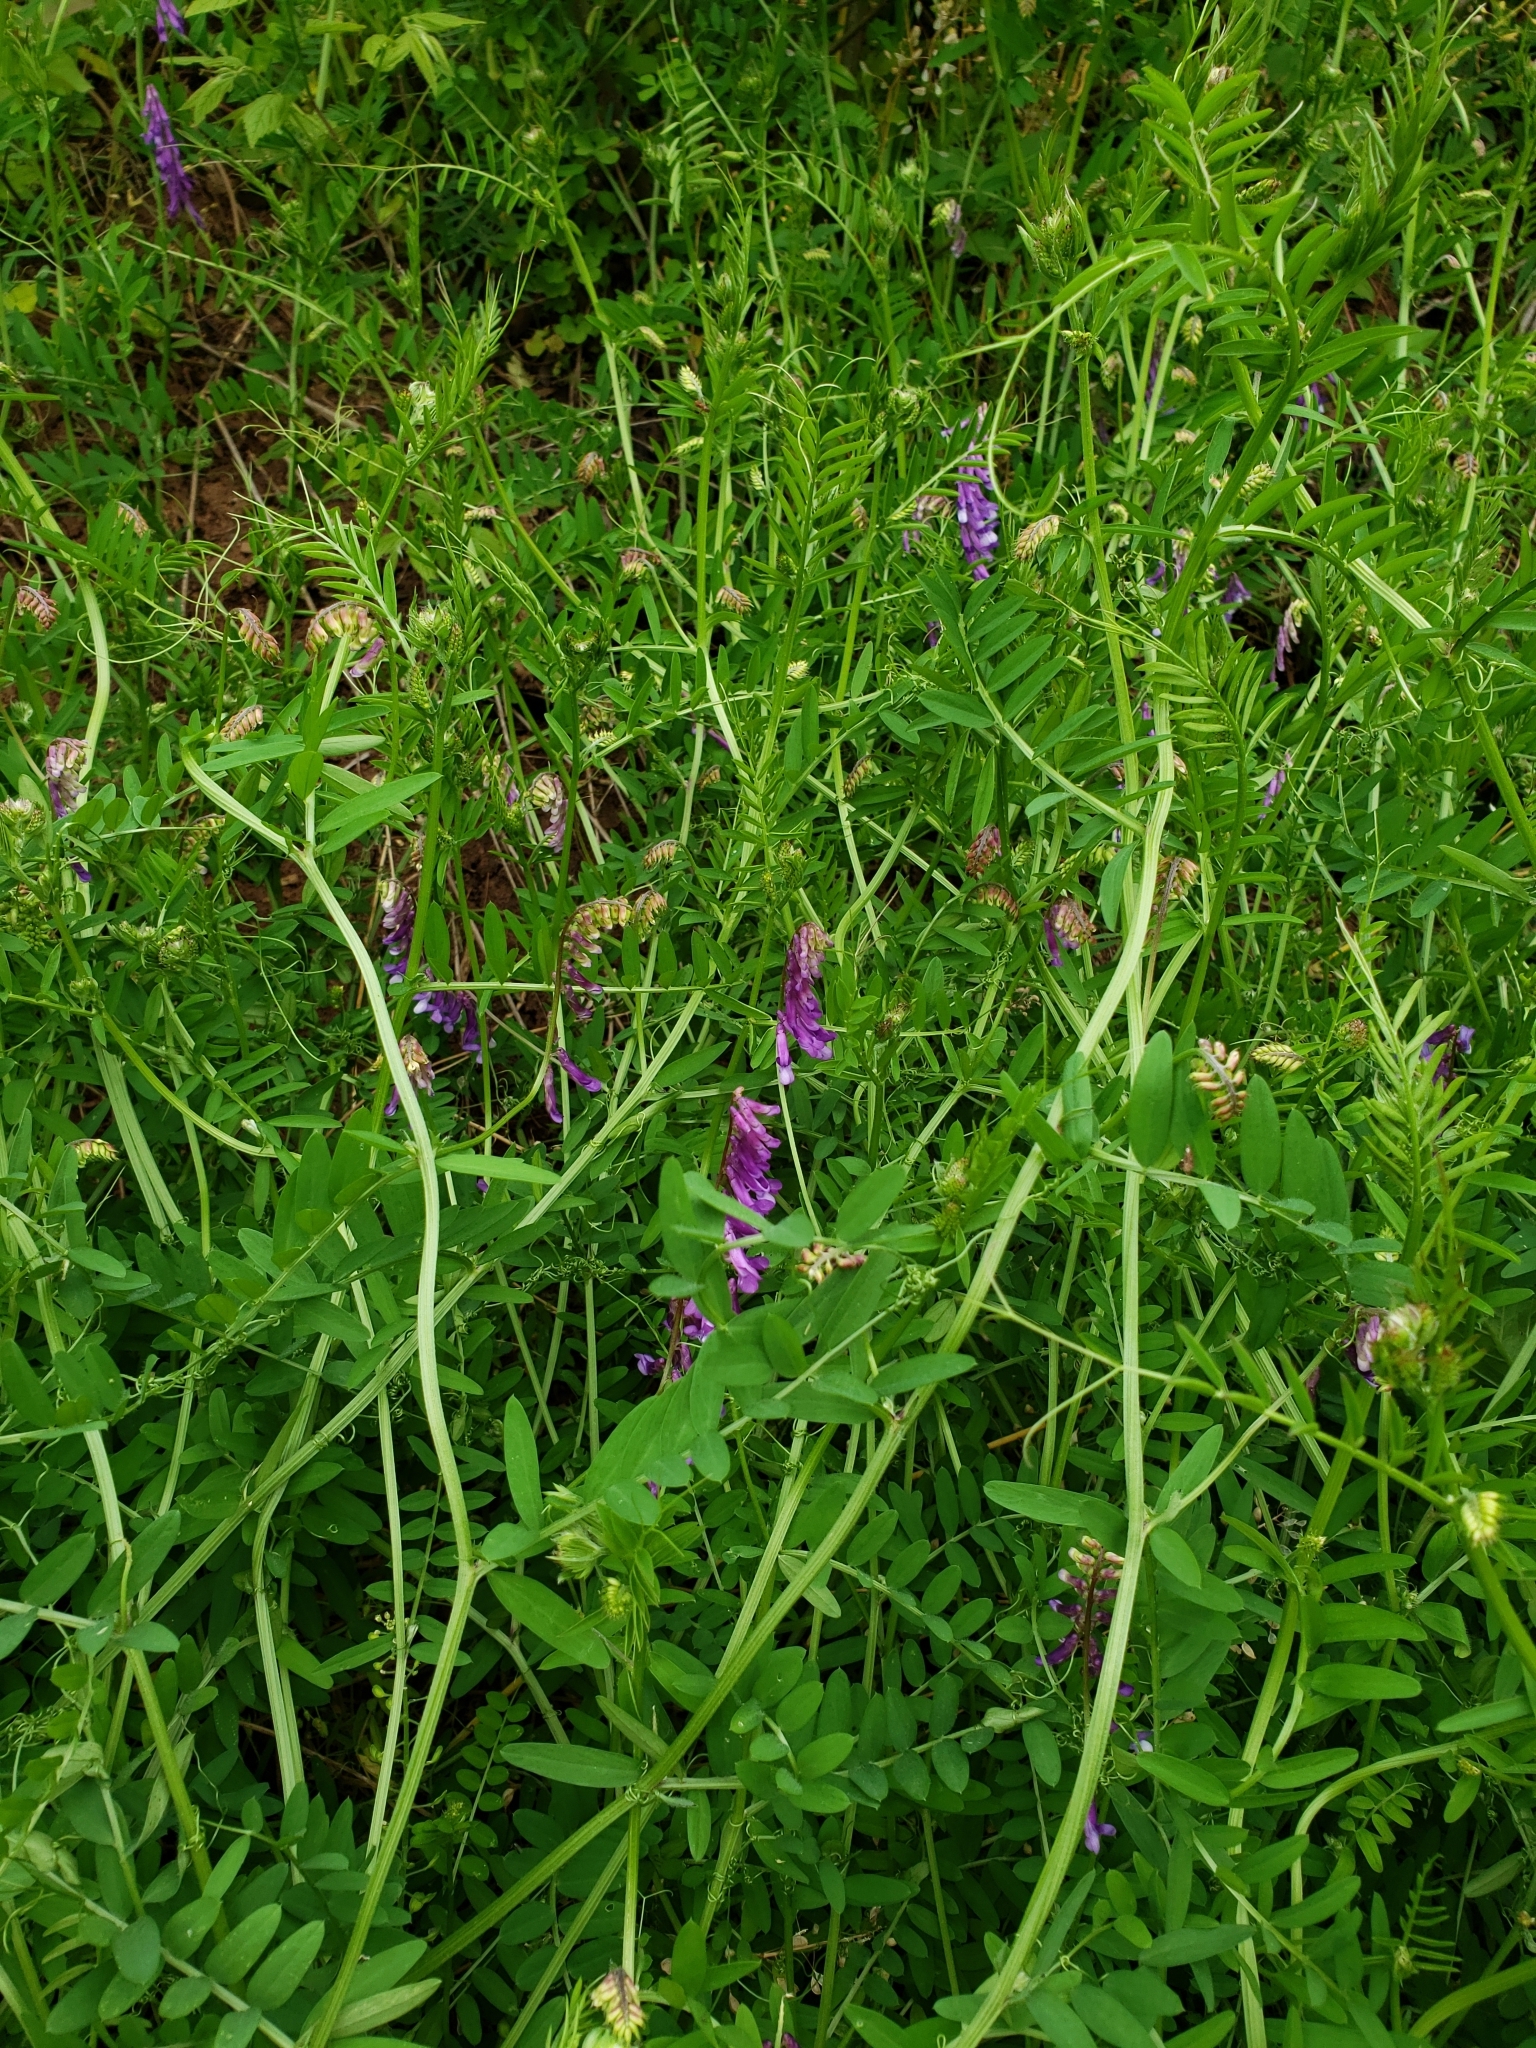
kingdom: Plantae
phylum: Tracheophyta
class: Magnoliopsida
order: Fabales
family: Fabaceae
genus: Vicia
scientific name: Vicia villosa
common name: Fodder vetch
